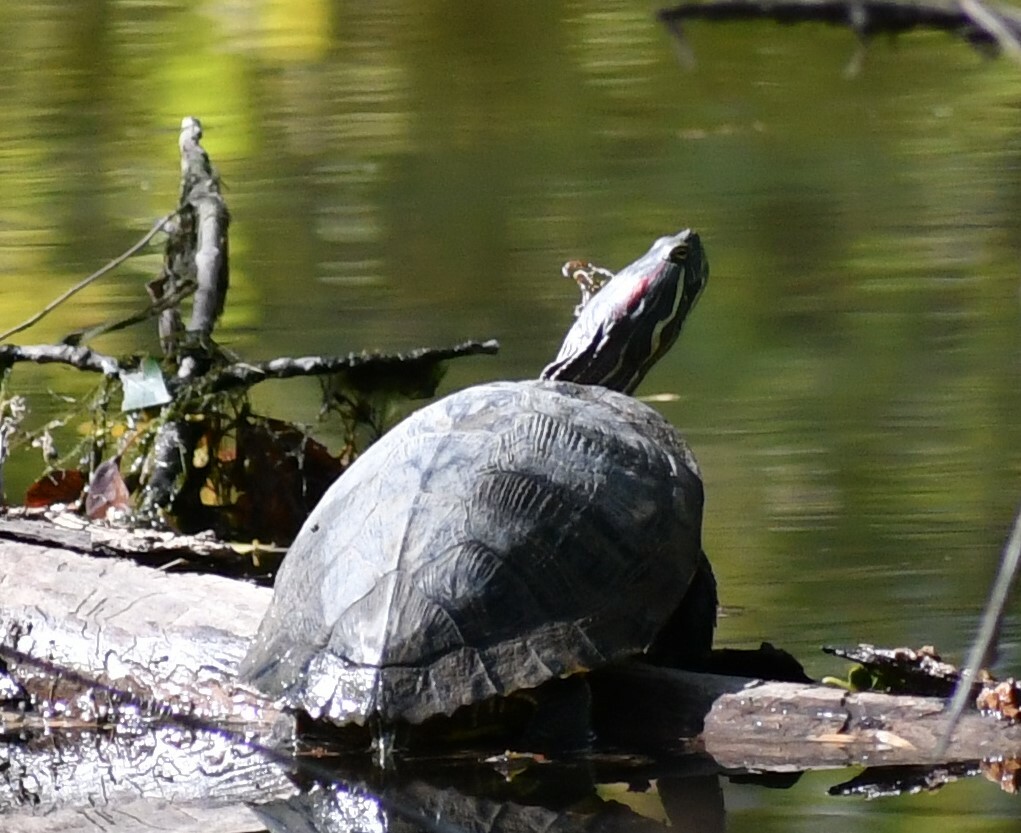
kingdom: Animalia
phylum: Chordata
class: Testudines
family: Emydidae
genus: Trachemys
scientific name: Trachemys scripta
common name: Slider
